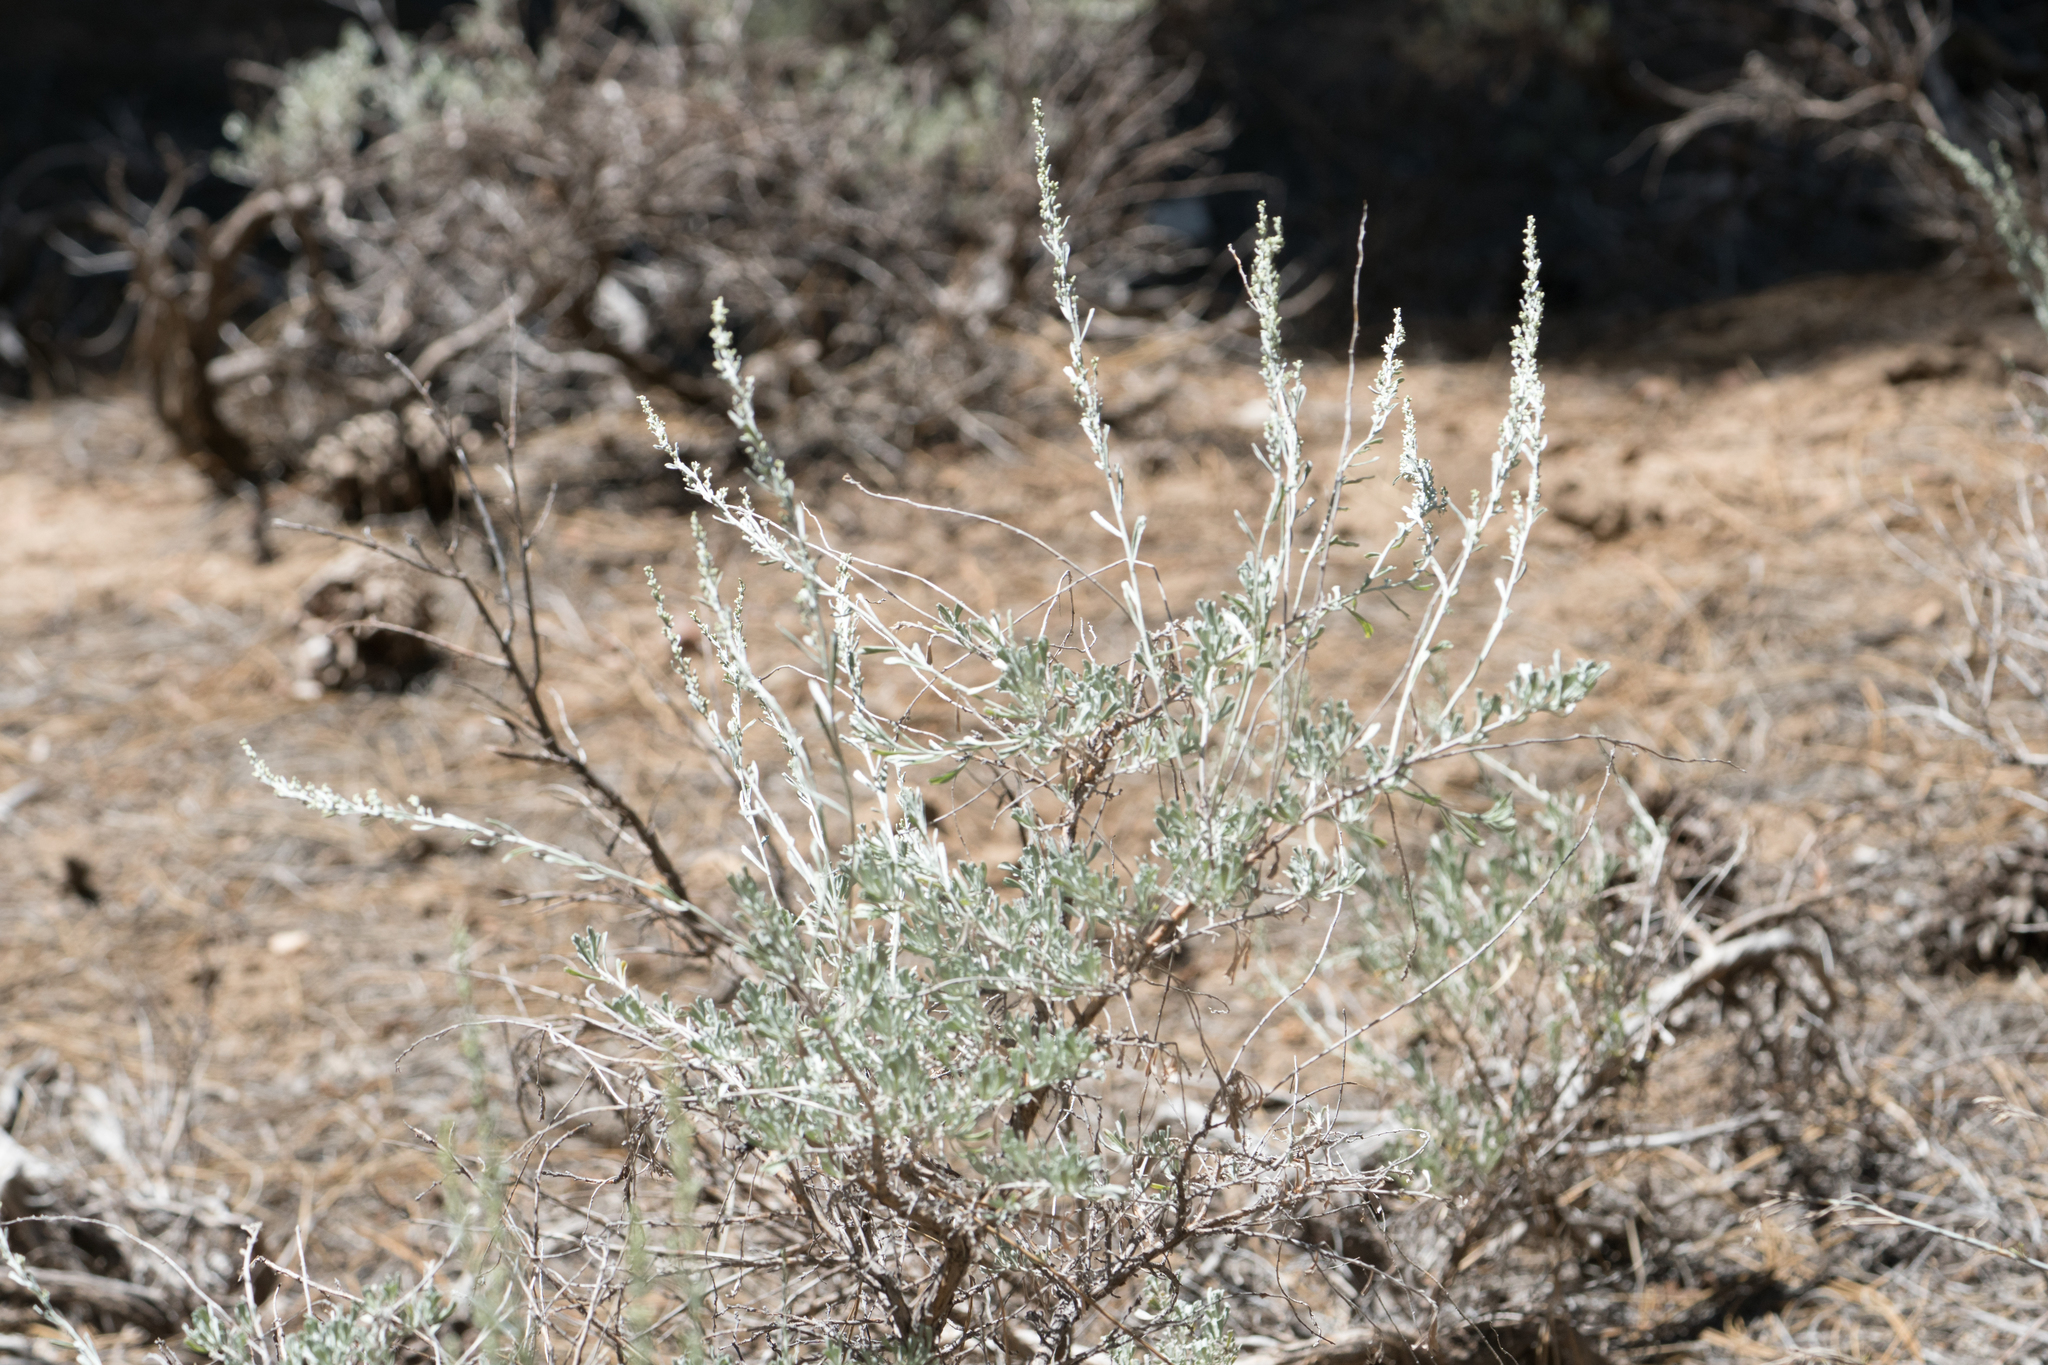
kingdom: Plantae
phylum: Tracheophyta
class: Magnoliopsida
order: Asterales
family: Asteraceae
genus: Artemisia
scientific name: Artemisia tridentata
